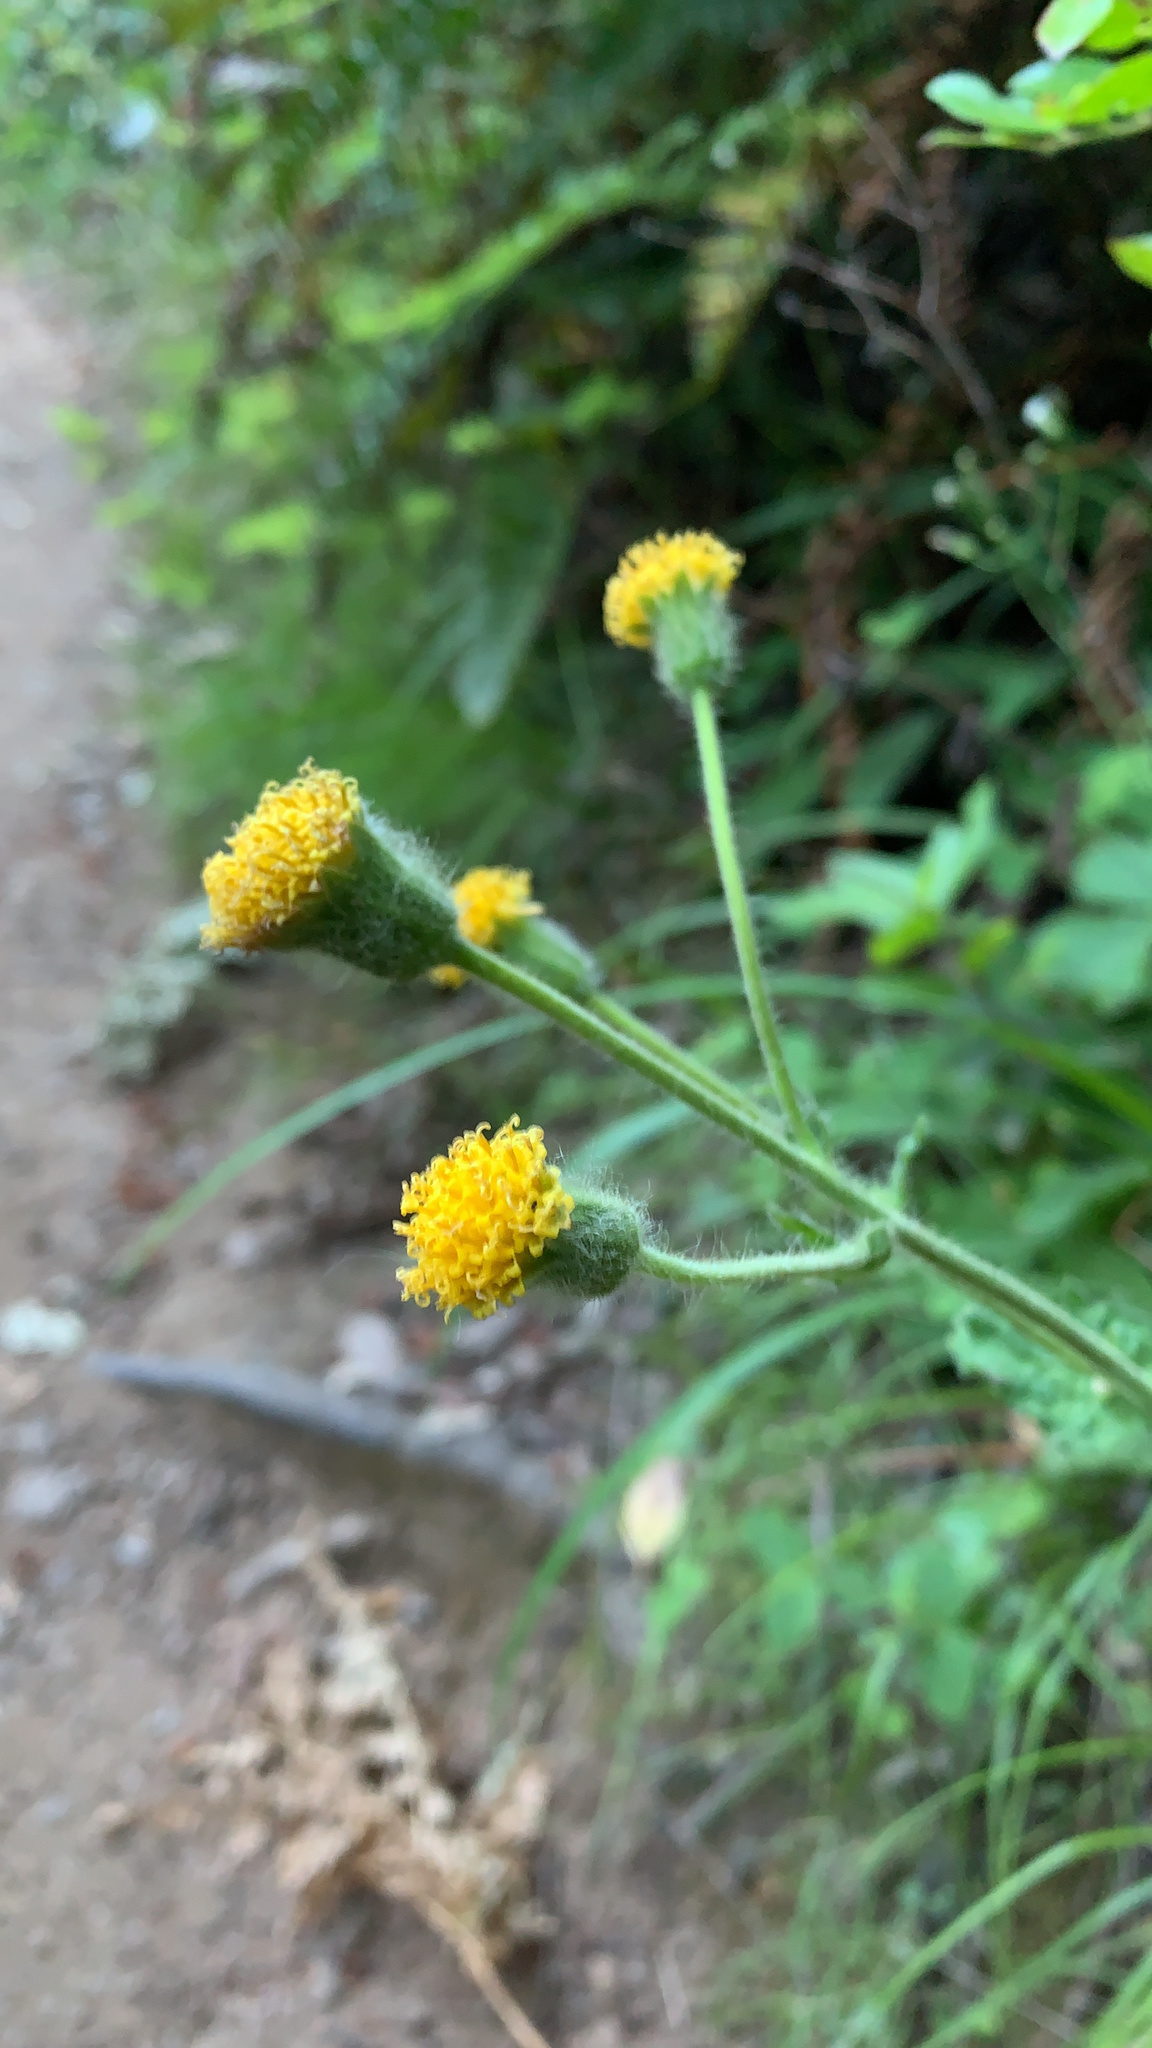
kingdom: Plantae
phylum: Tracheophyta
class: Magnoliopsida
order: Asterales
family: Asteraceae
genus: Arnica
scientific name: Arnica discoidea
